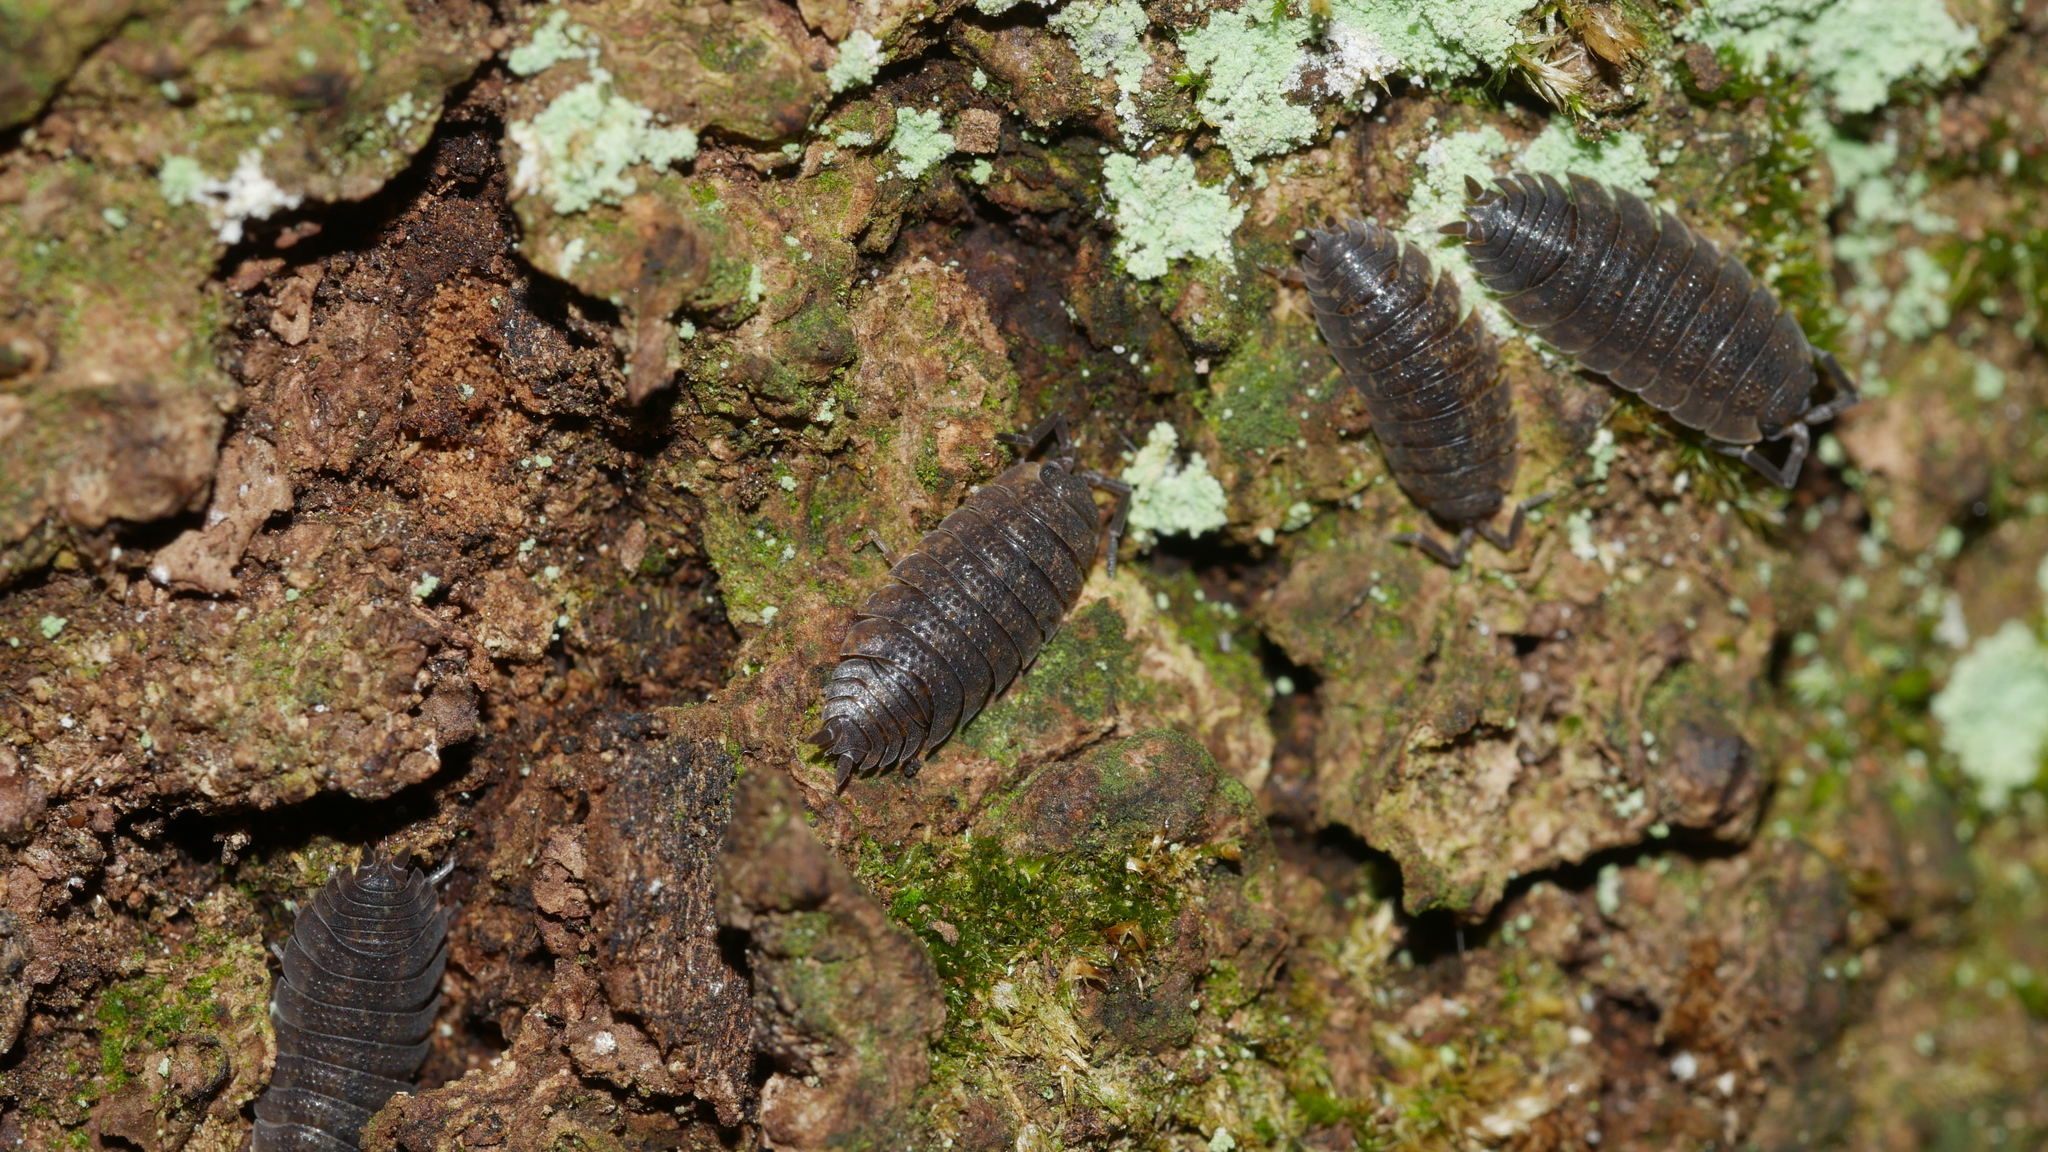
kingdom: Animalia
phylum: Arthropoda
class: Malacostraca
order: Isopoda
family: Porcellionidae
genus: Porcellio
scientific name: Porcellio scaber
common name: Common rough woodlouse
